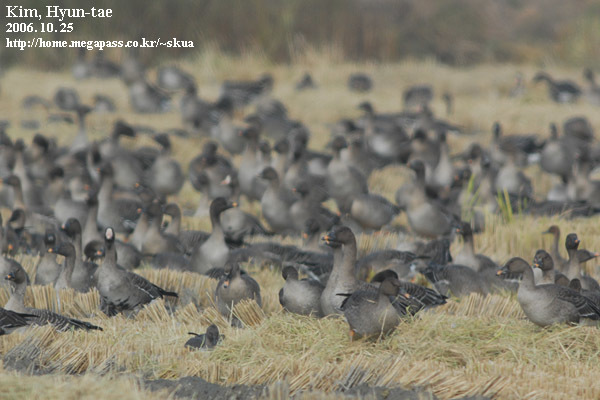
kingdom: Animalia
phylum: Chordata
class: Aves
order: Anseriformes
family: Anatidae
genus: Anser
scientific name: Anser fabalis
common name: Bean goose
